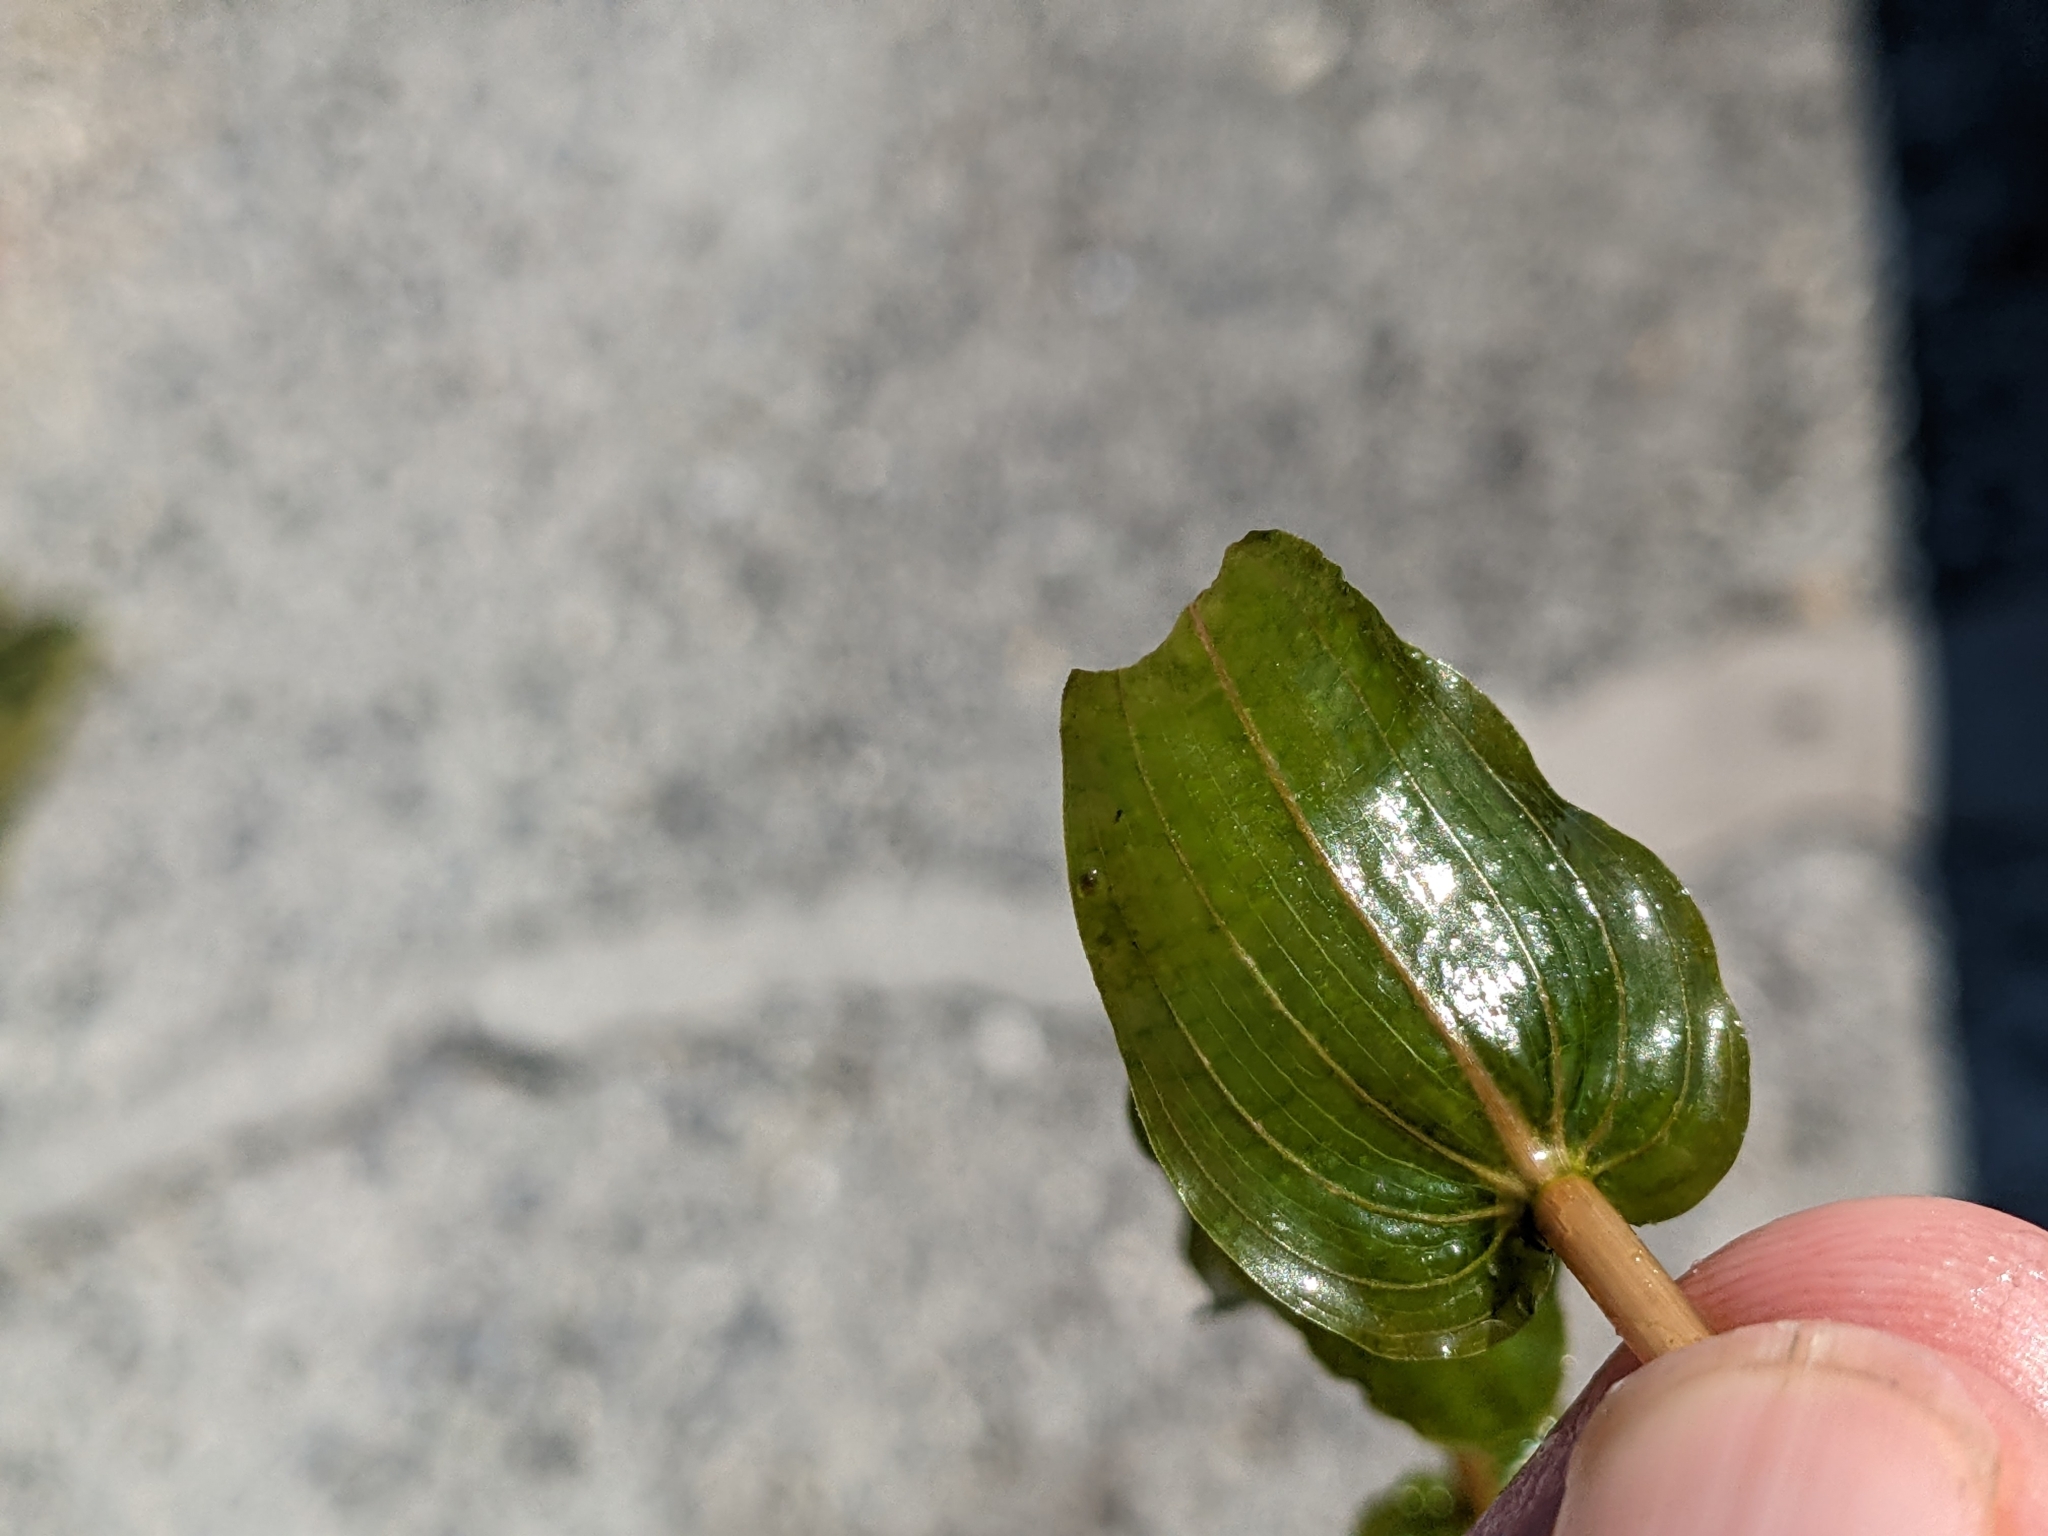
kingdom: Plantae
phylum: Tracheophyta
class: Liliopsida
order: Alismatales
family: Potamogetonaceae
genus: Potamogeton
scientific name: Potamogeton perfoliatus
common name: Perfoliate pondweed
